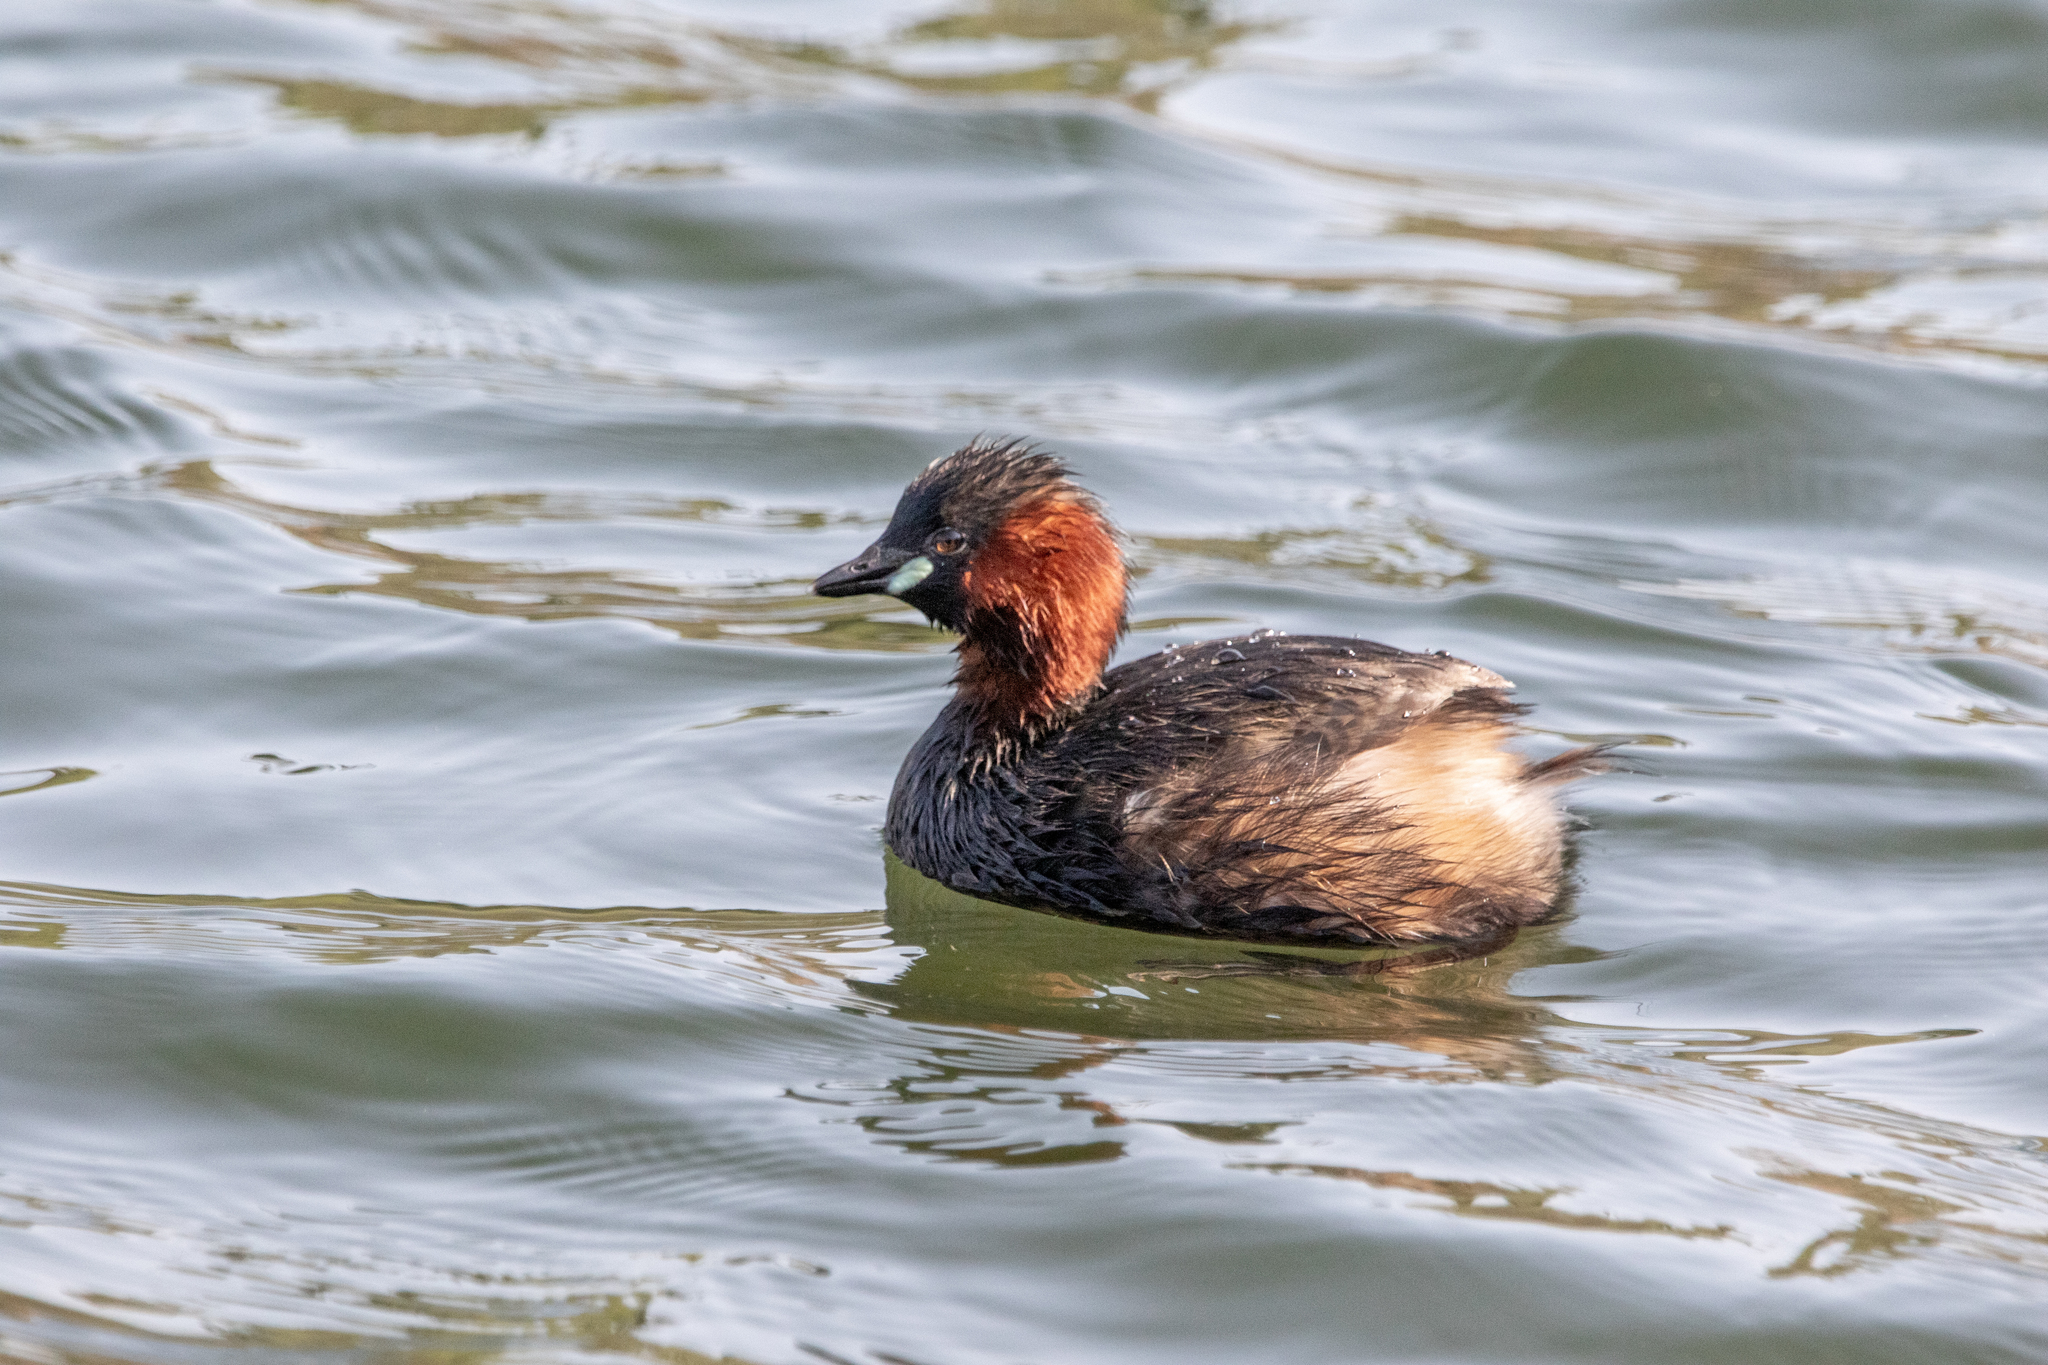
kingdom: Animalia
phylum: Chordata
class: Aves
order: Podicipediformes
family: Podicipedidae
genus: Tachybaptus
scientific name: Tachybaptus ruficollis
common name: Little grebe
